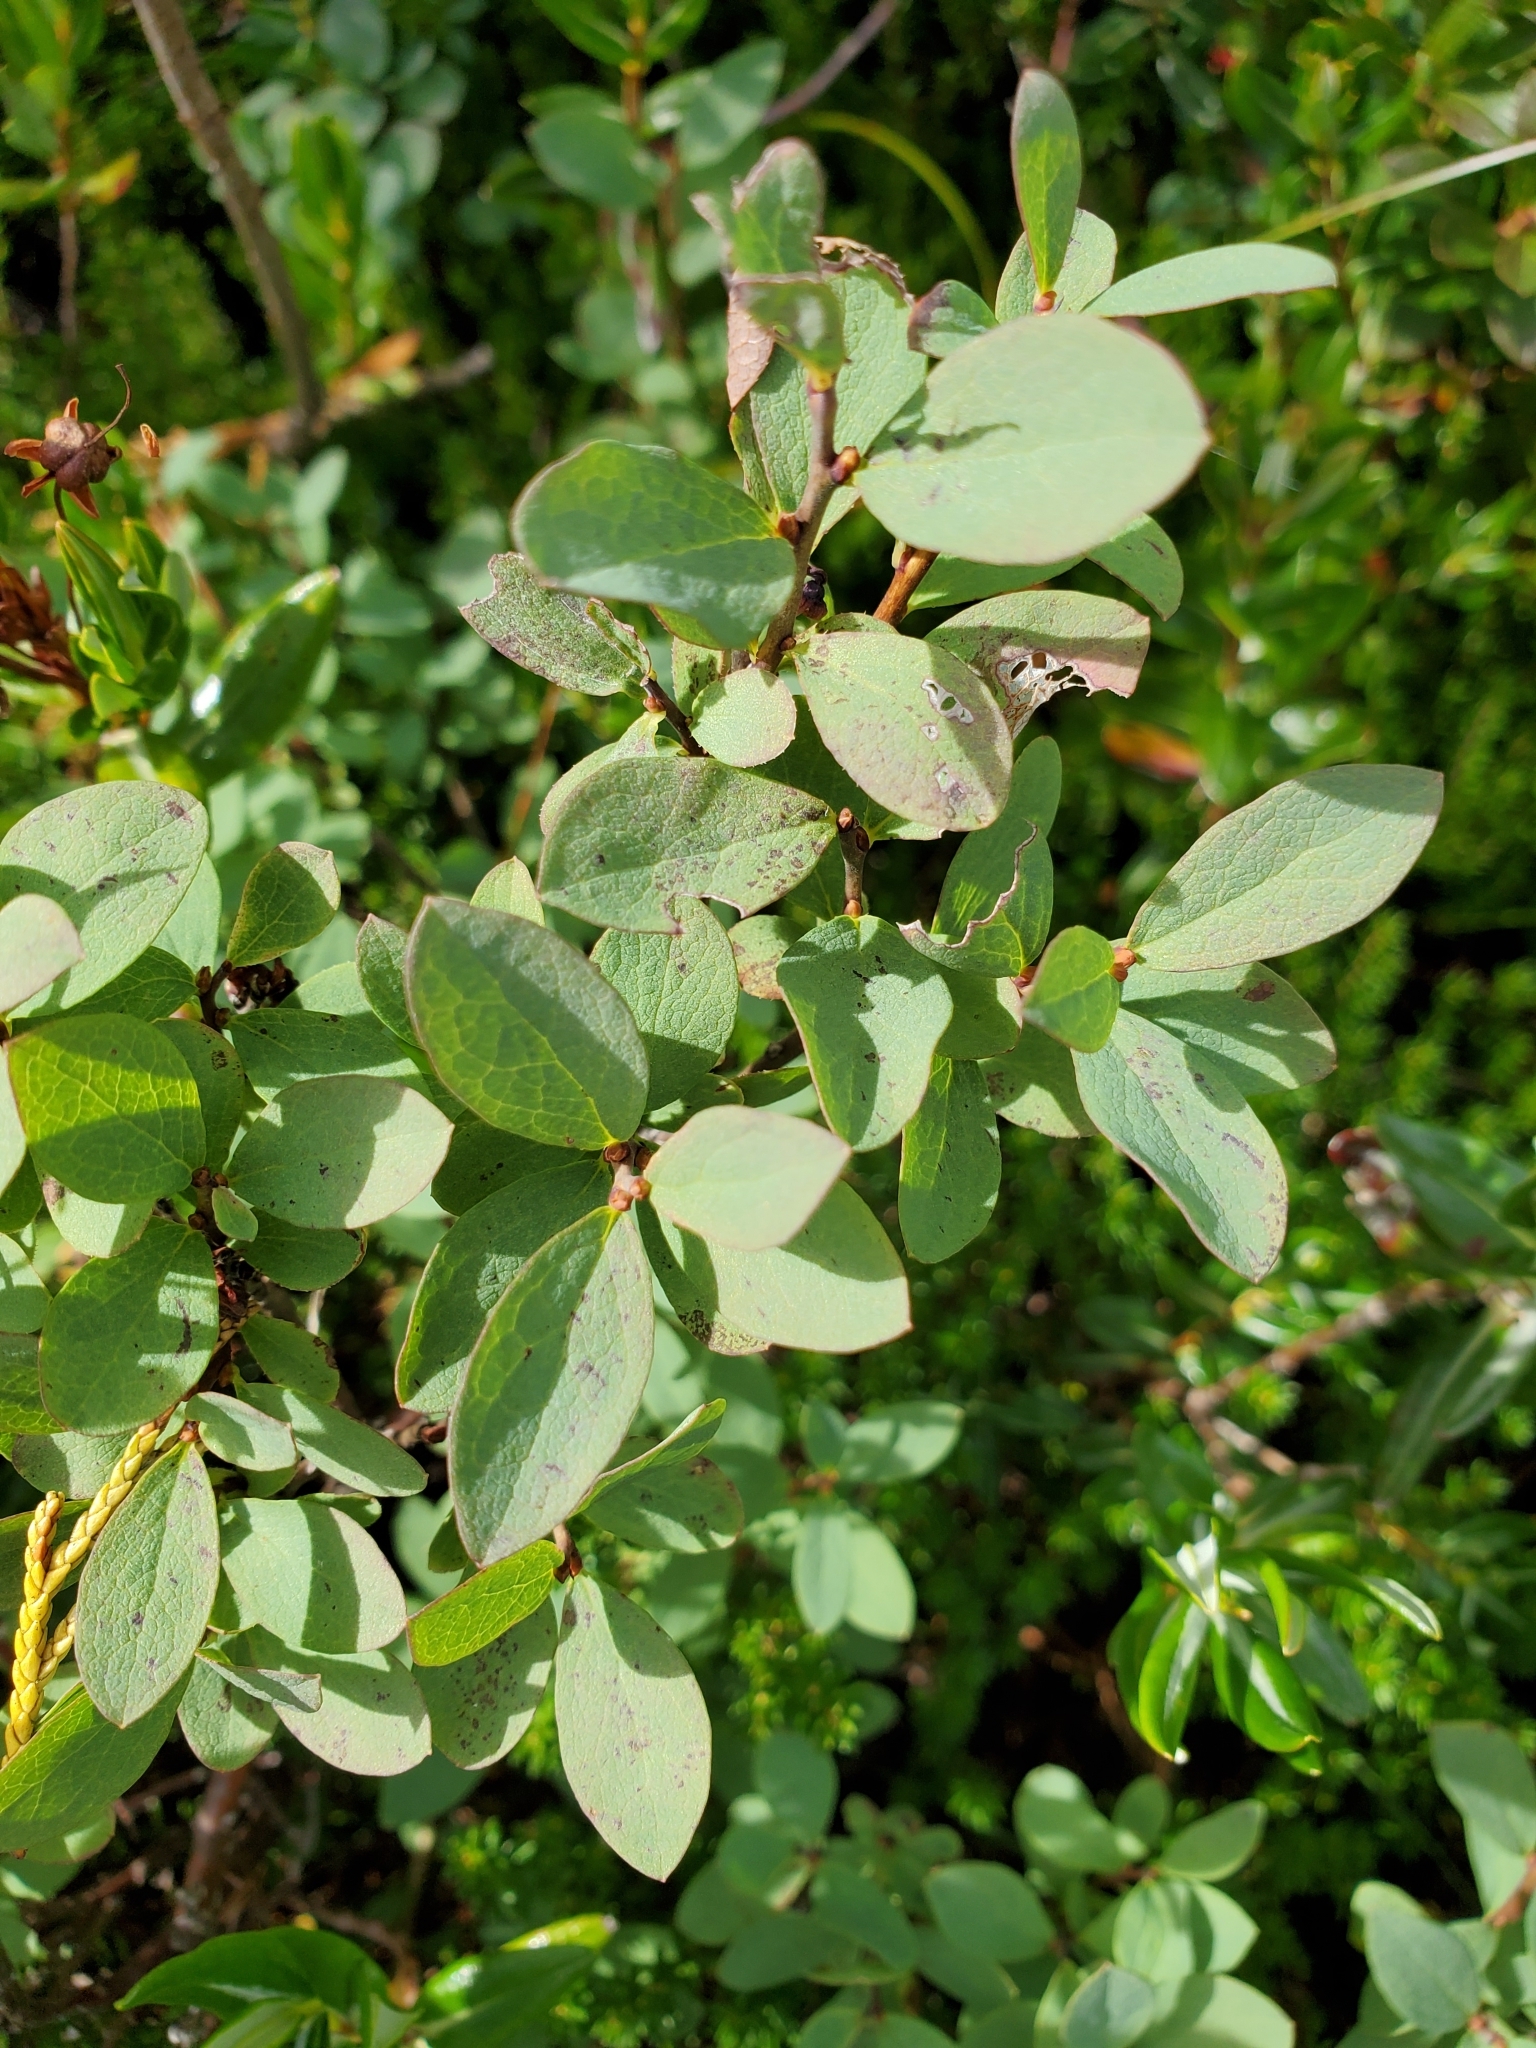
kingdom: Plantae
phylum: Tracheophyta
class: Magnoliopsida
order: Ericales
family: Ericaceae
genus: Vaccinium
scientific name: Vaccinium uliginosum
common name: Bog bilberry
